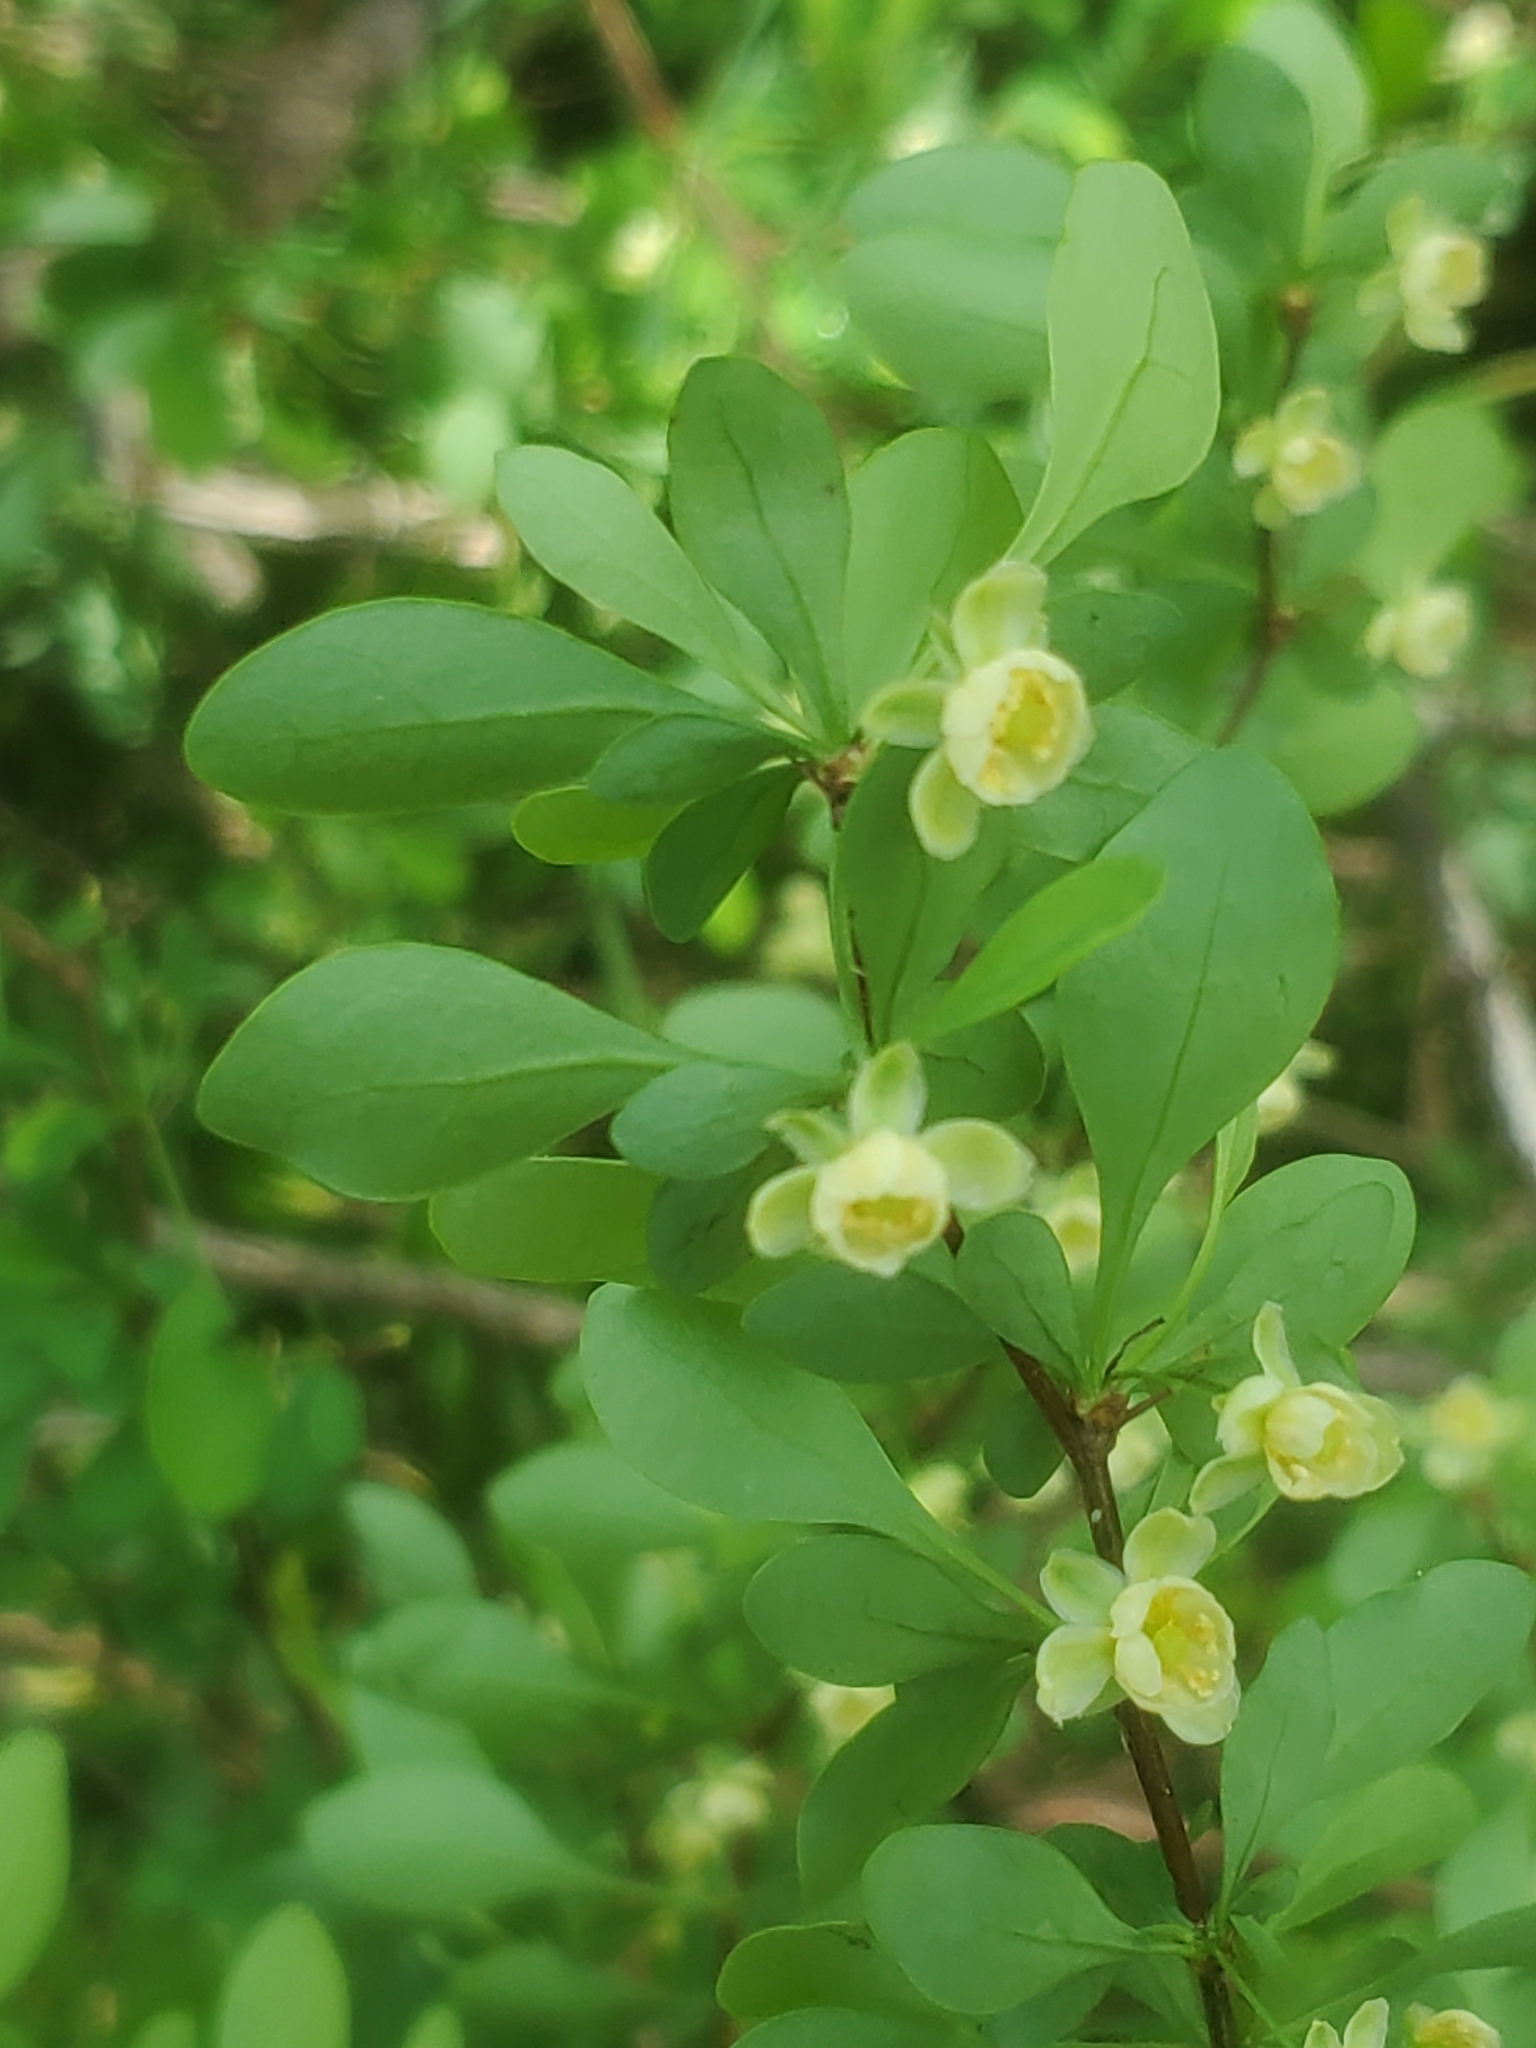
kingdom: Plantae
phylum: Tracheophyta
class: Magnoliopsida
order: Ranunculales
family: Berberidaceae
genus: Berberis
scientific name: Berberis thunbergii
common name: Japanese barberry
